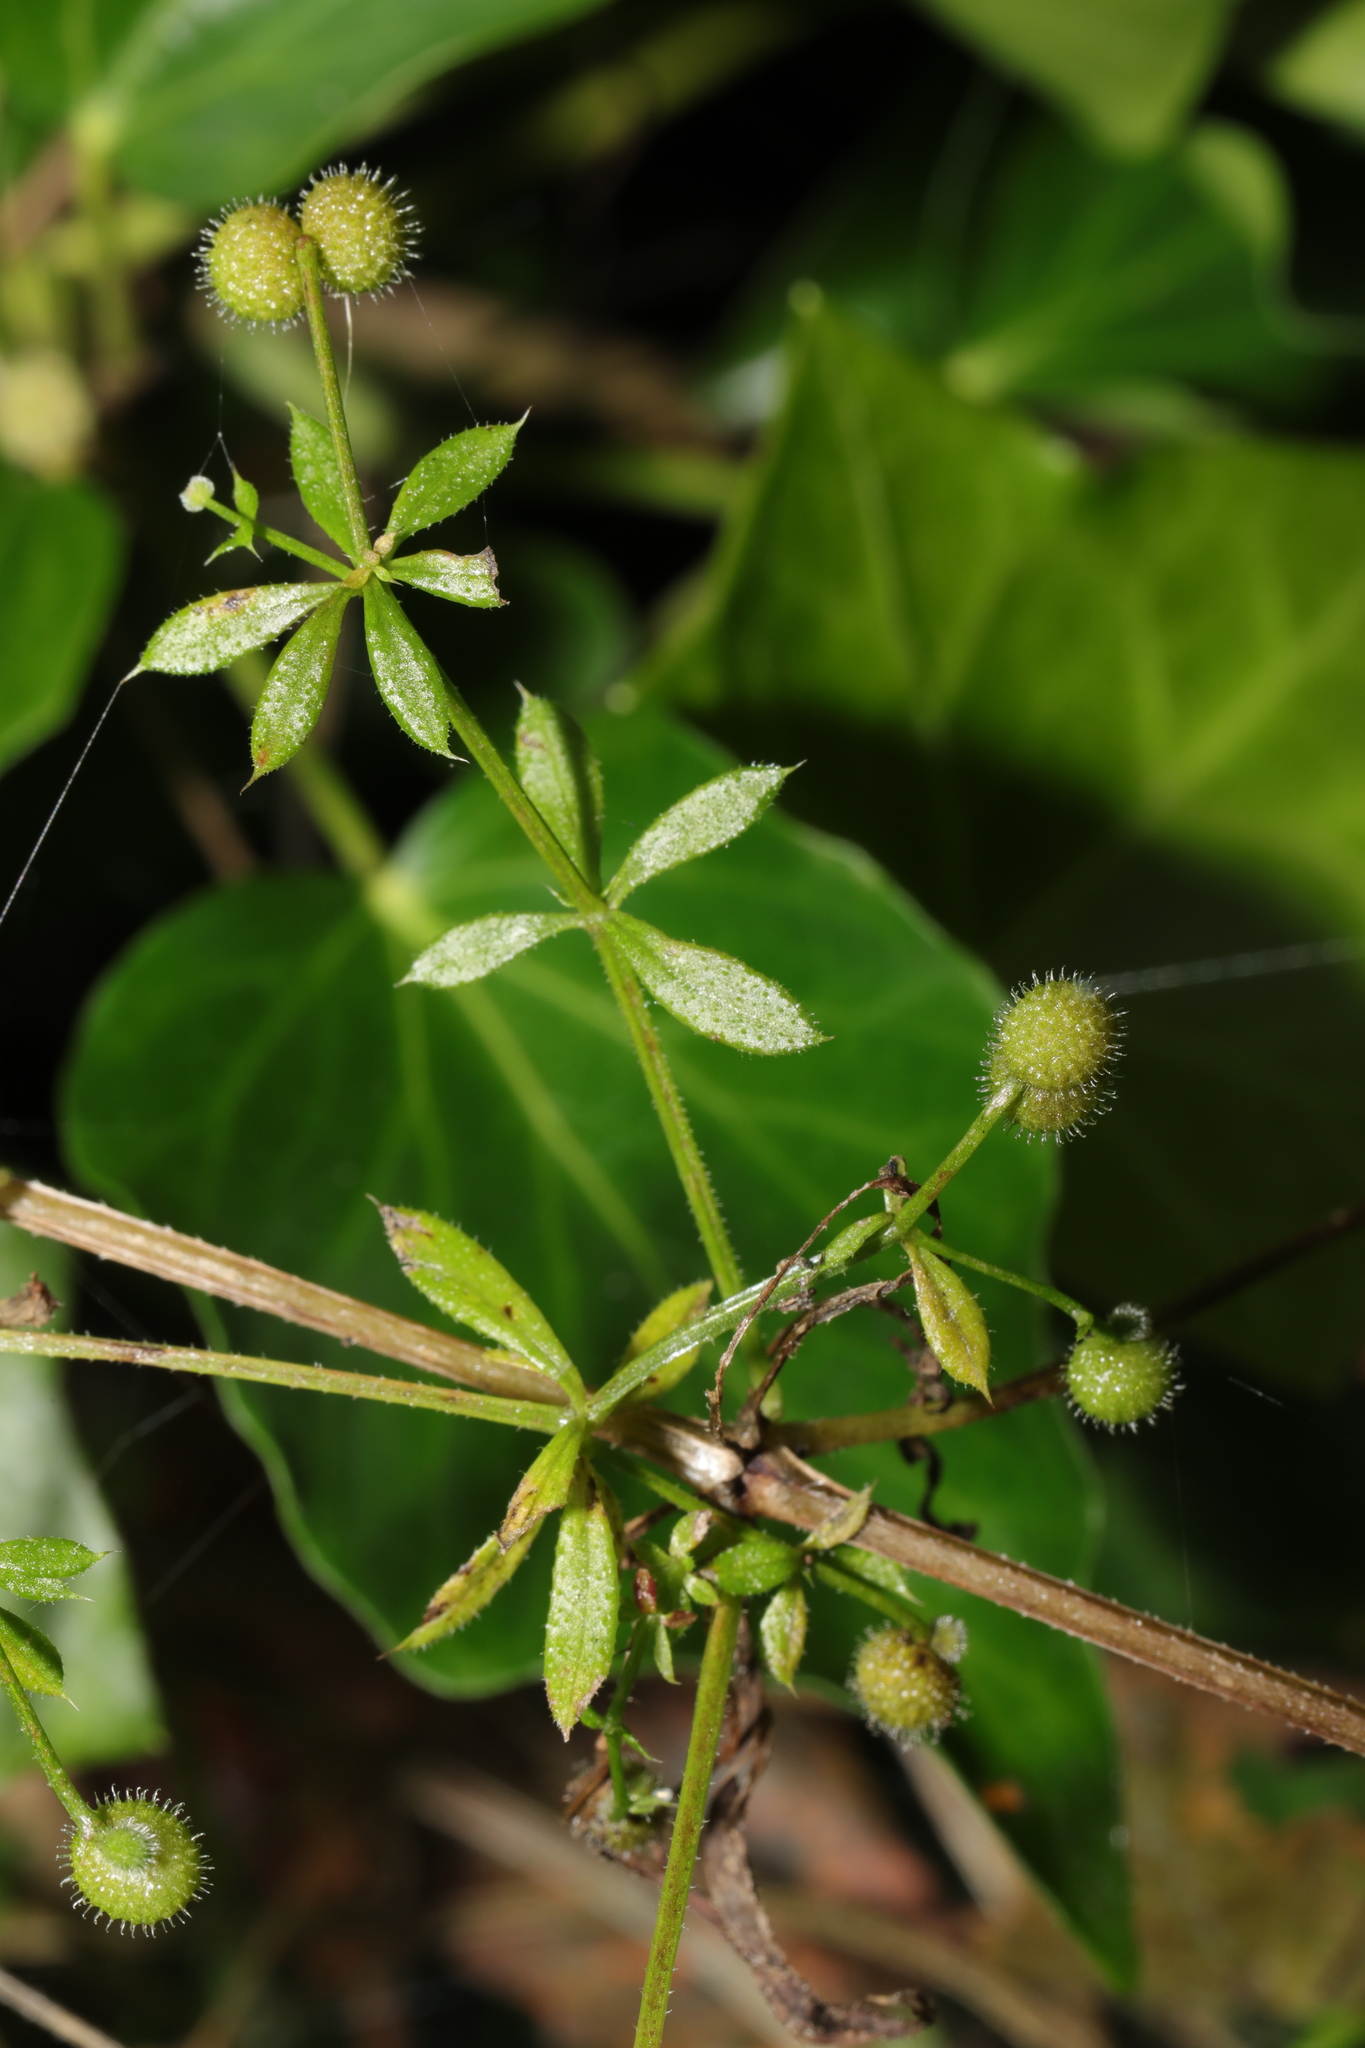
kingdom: Plantae
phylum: Tracheophyta
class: Magnoliopsida
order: Gentianales
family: Rubiaceae
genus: Galium
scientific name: Galium aparine
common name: Cleavers
